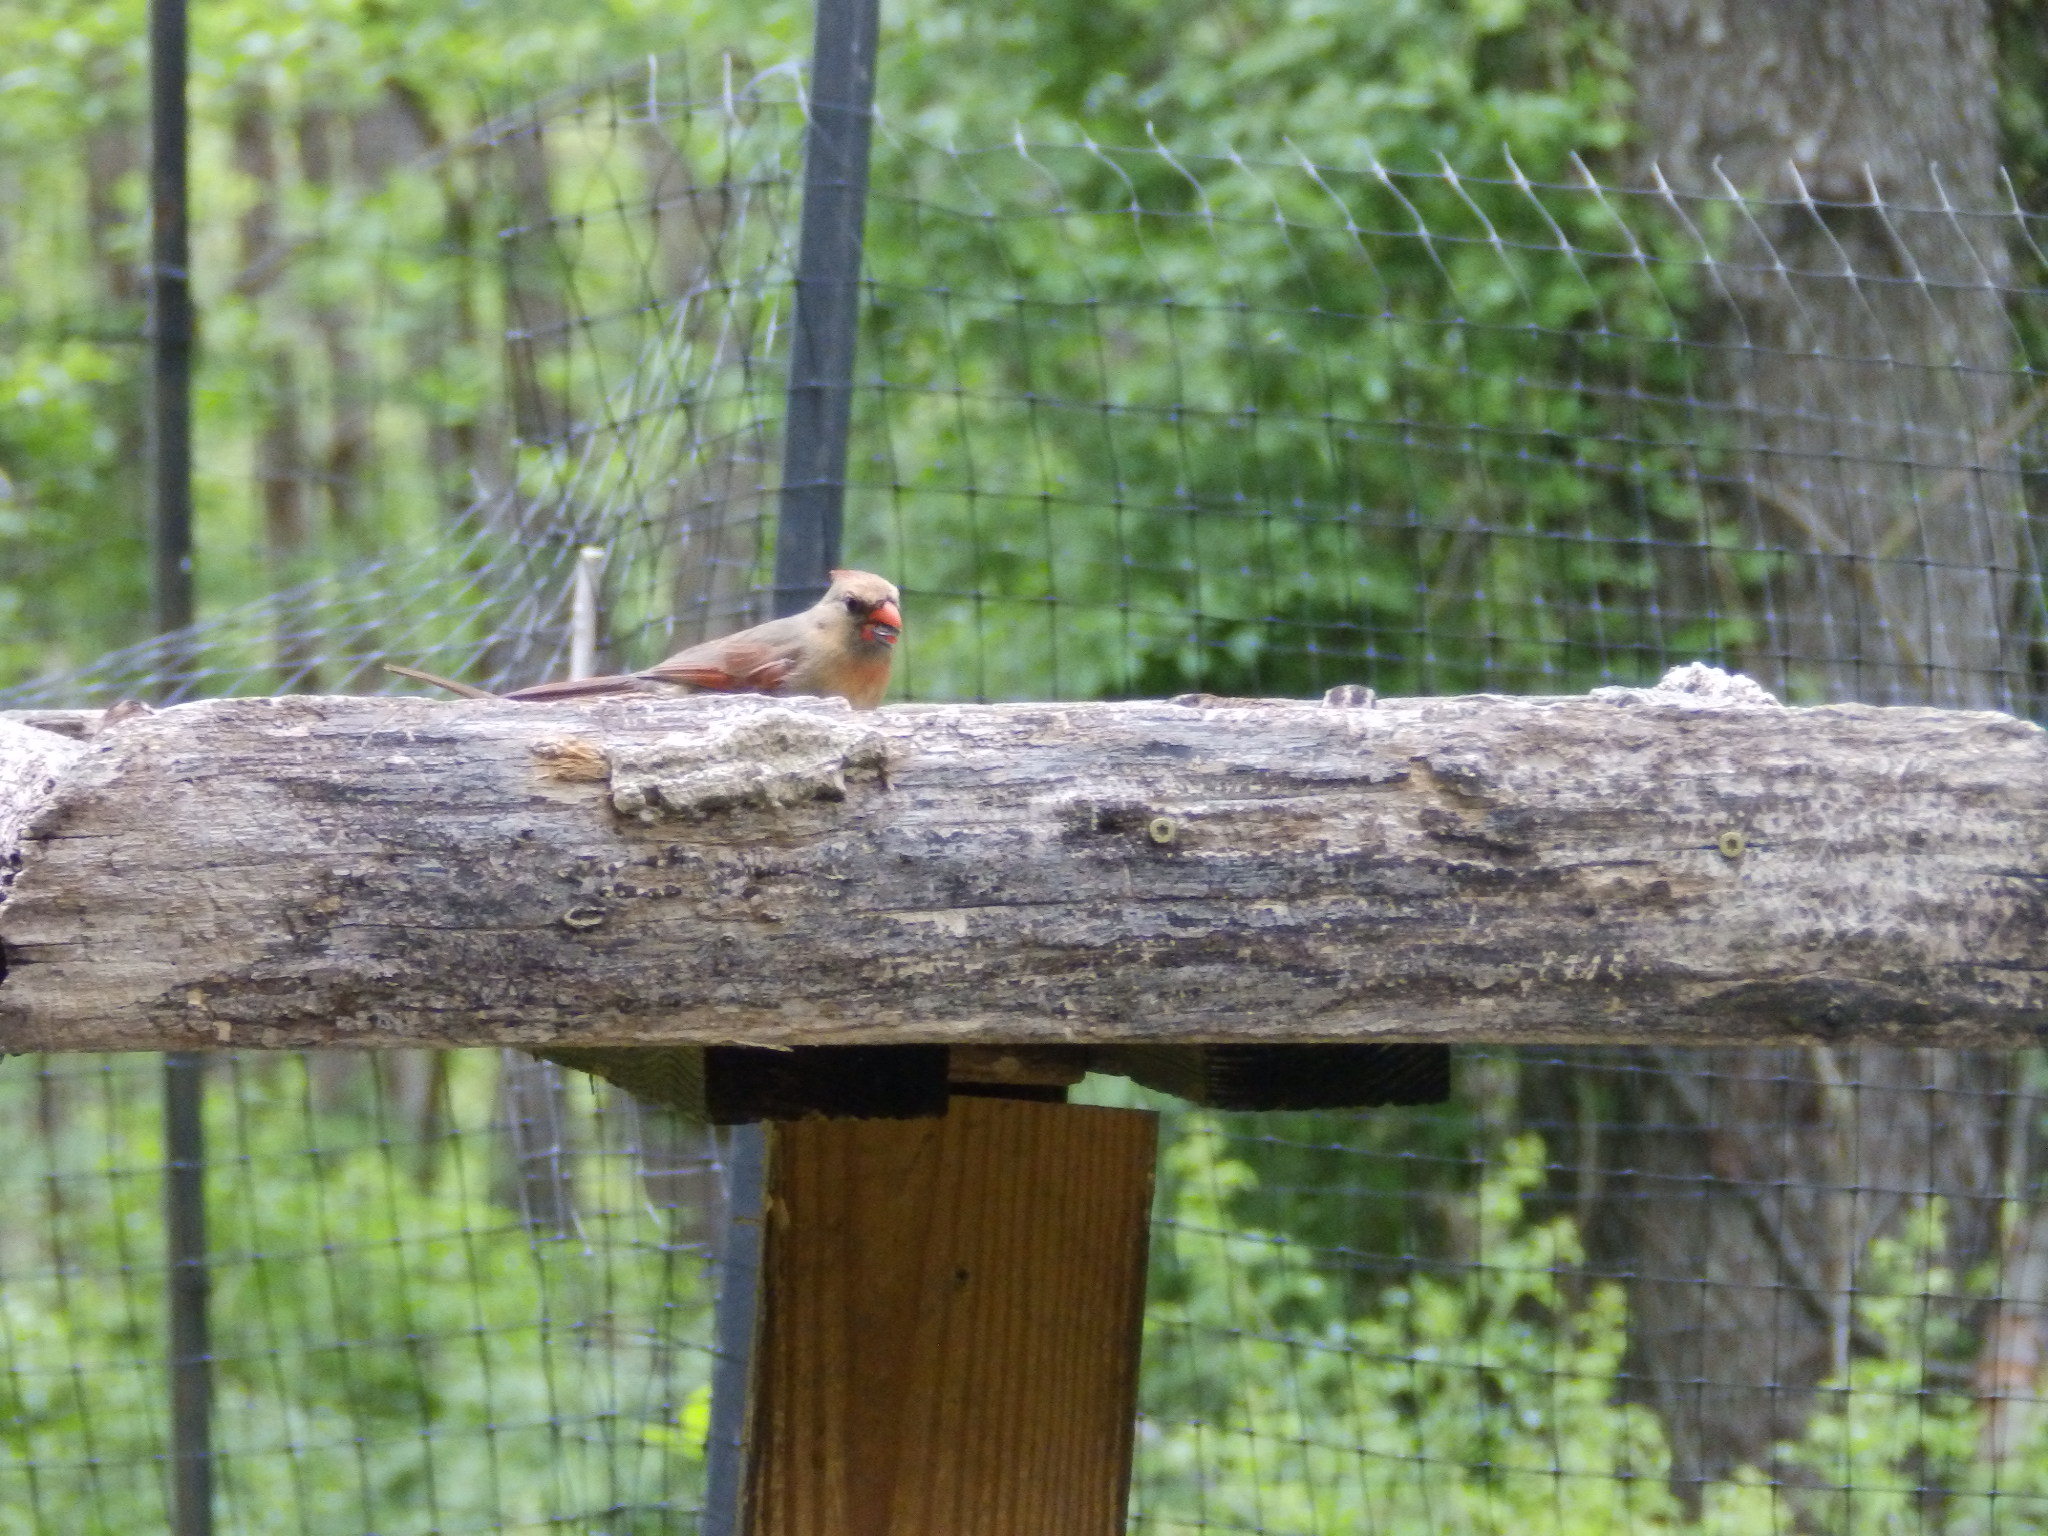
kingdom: Animalia
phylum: Chordata
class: Aves
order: Passeriformes
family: Cardinalidae
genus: Cardinalis
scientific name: Cardinalis cardinalis
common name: Northern cardinal
